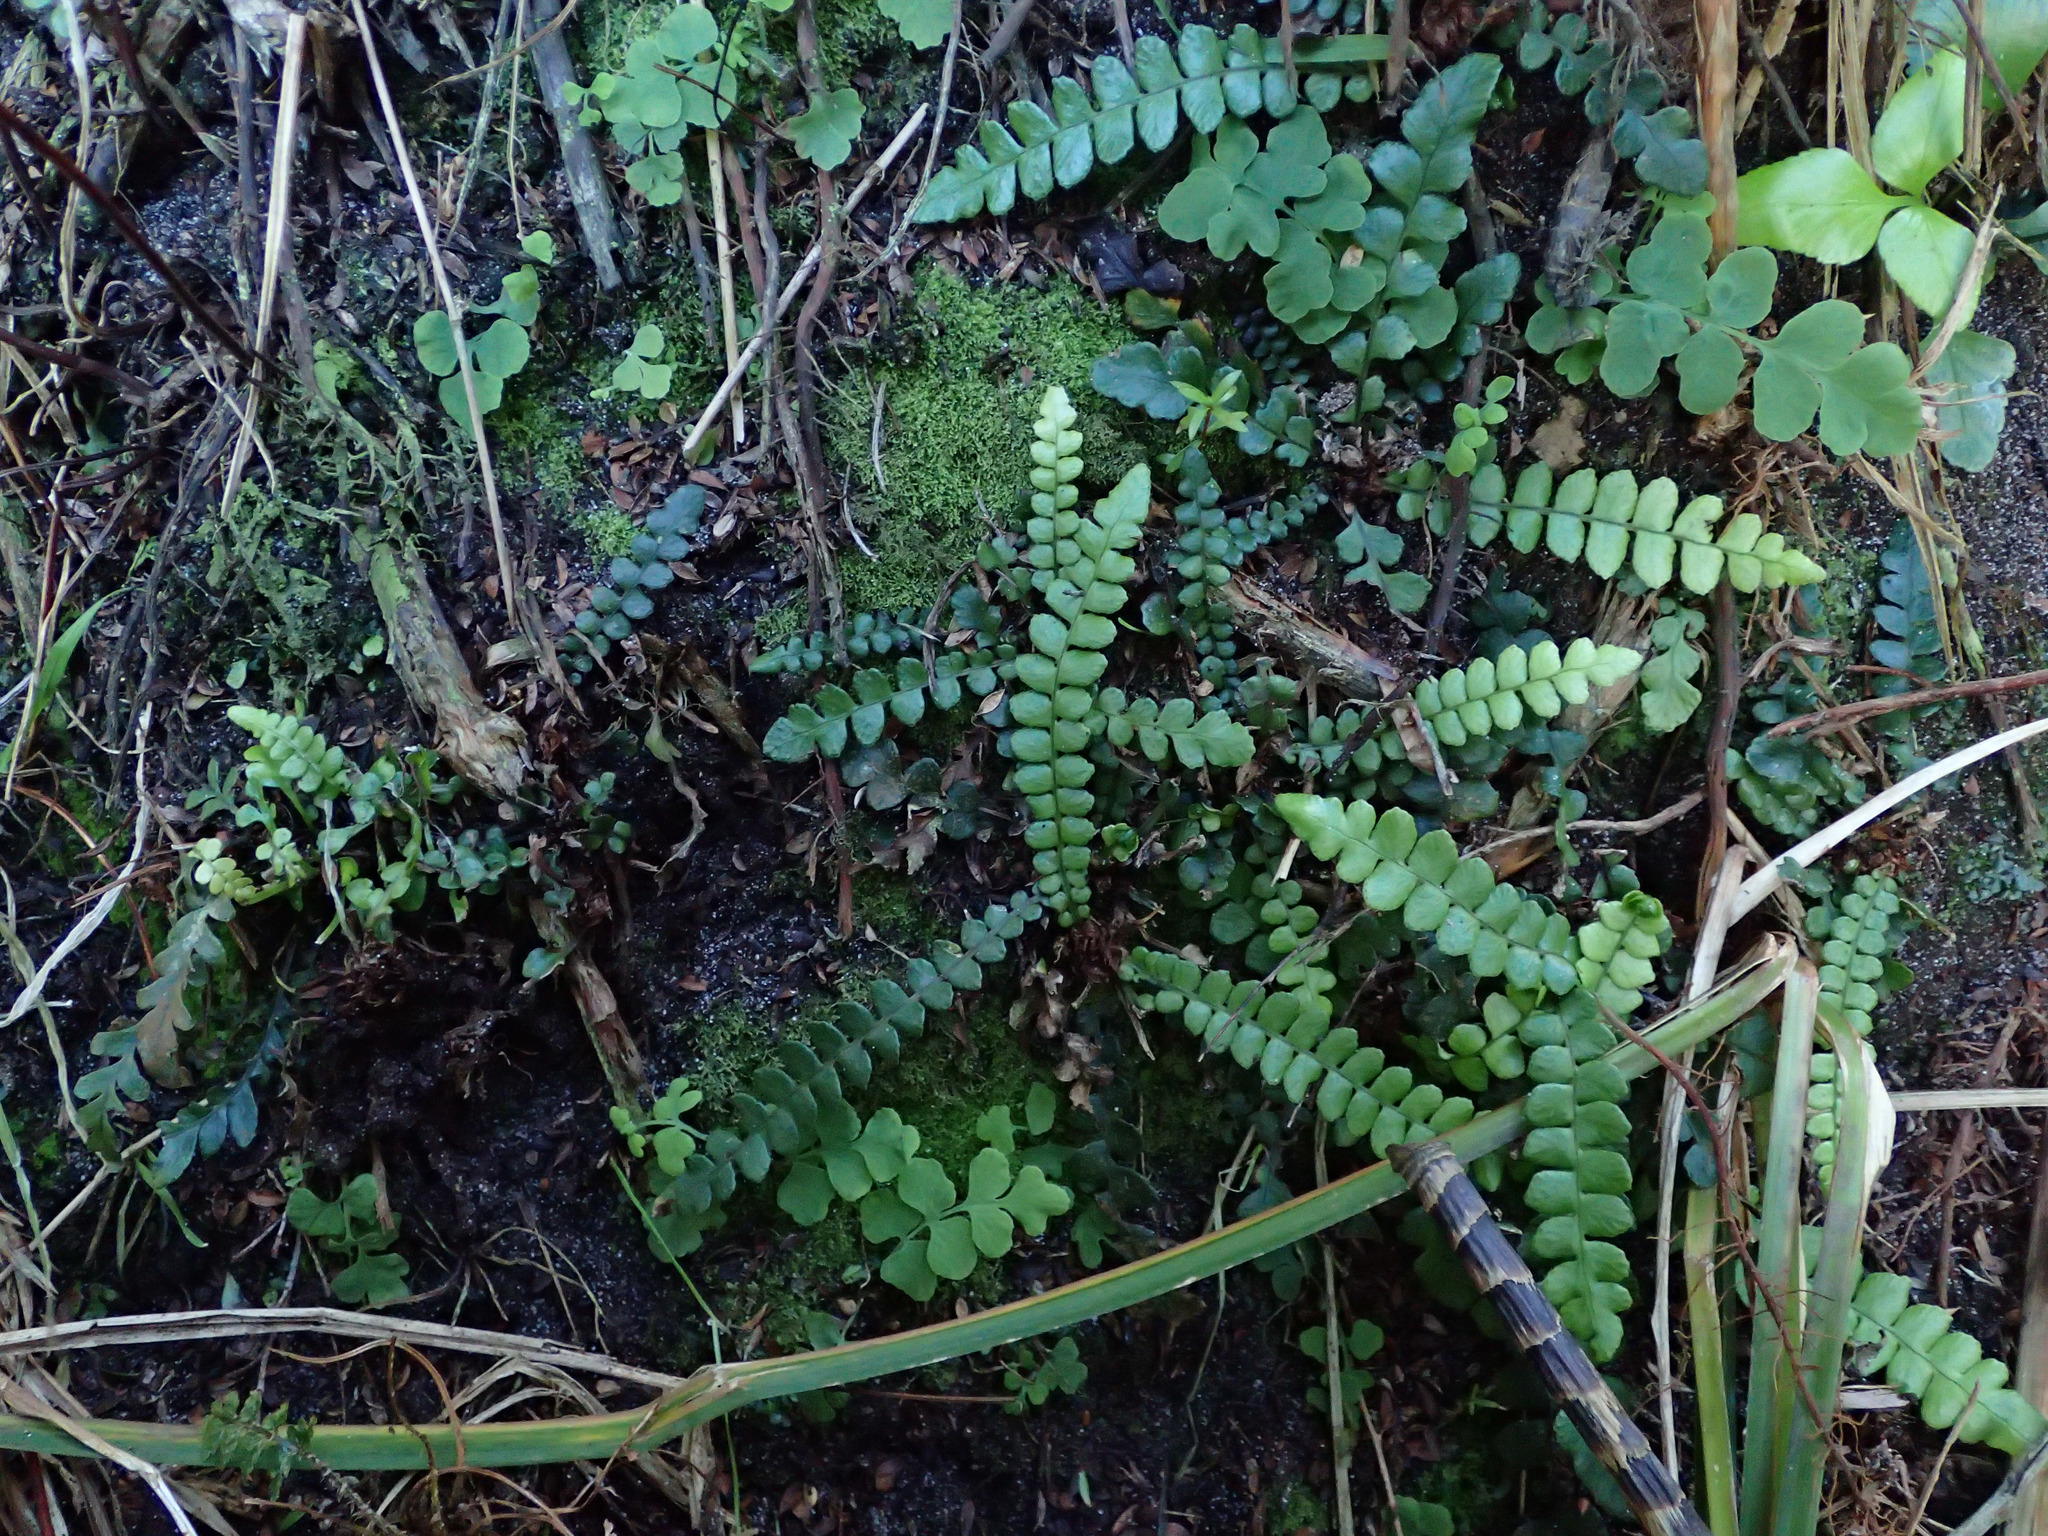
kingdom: Plantae
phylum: Tracheophyta
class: Polypodiopsida
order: Polypodiales
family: Blechnaceae
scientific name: Blechnaceae
